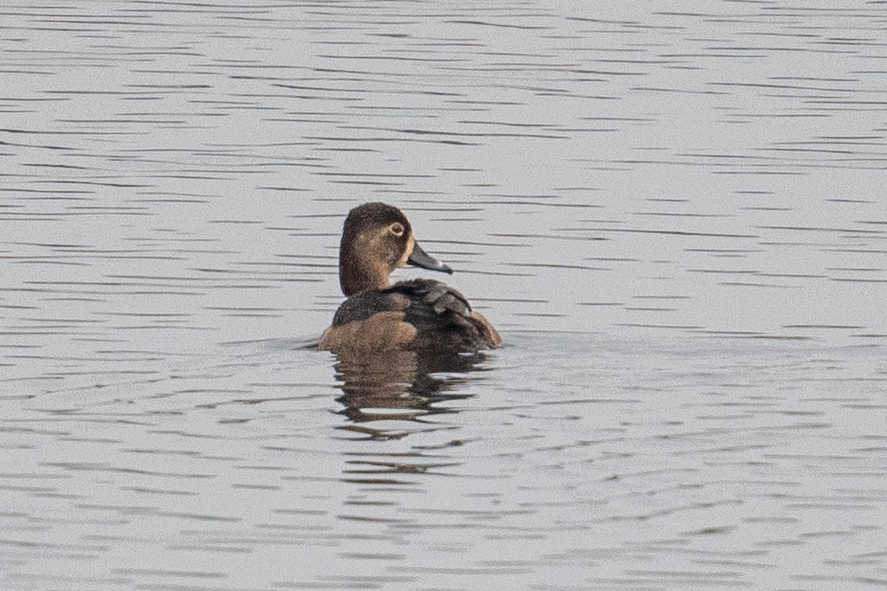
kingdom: Animalia
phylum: Chordata
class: Aves
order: Anseriformes
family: Anatidae
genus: Aythya
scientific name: Aythya collaris
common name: Ring-necked duck
